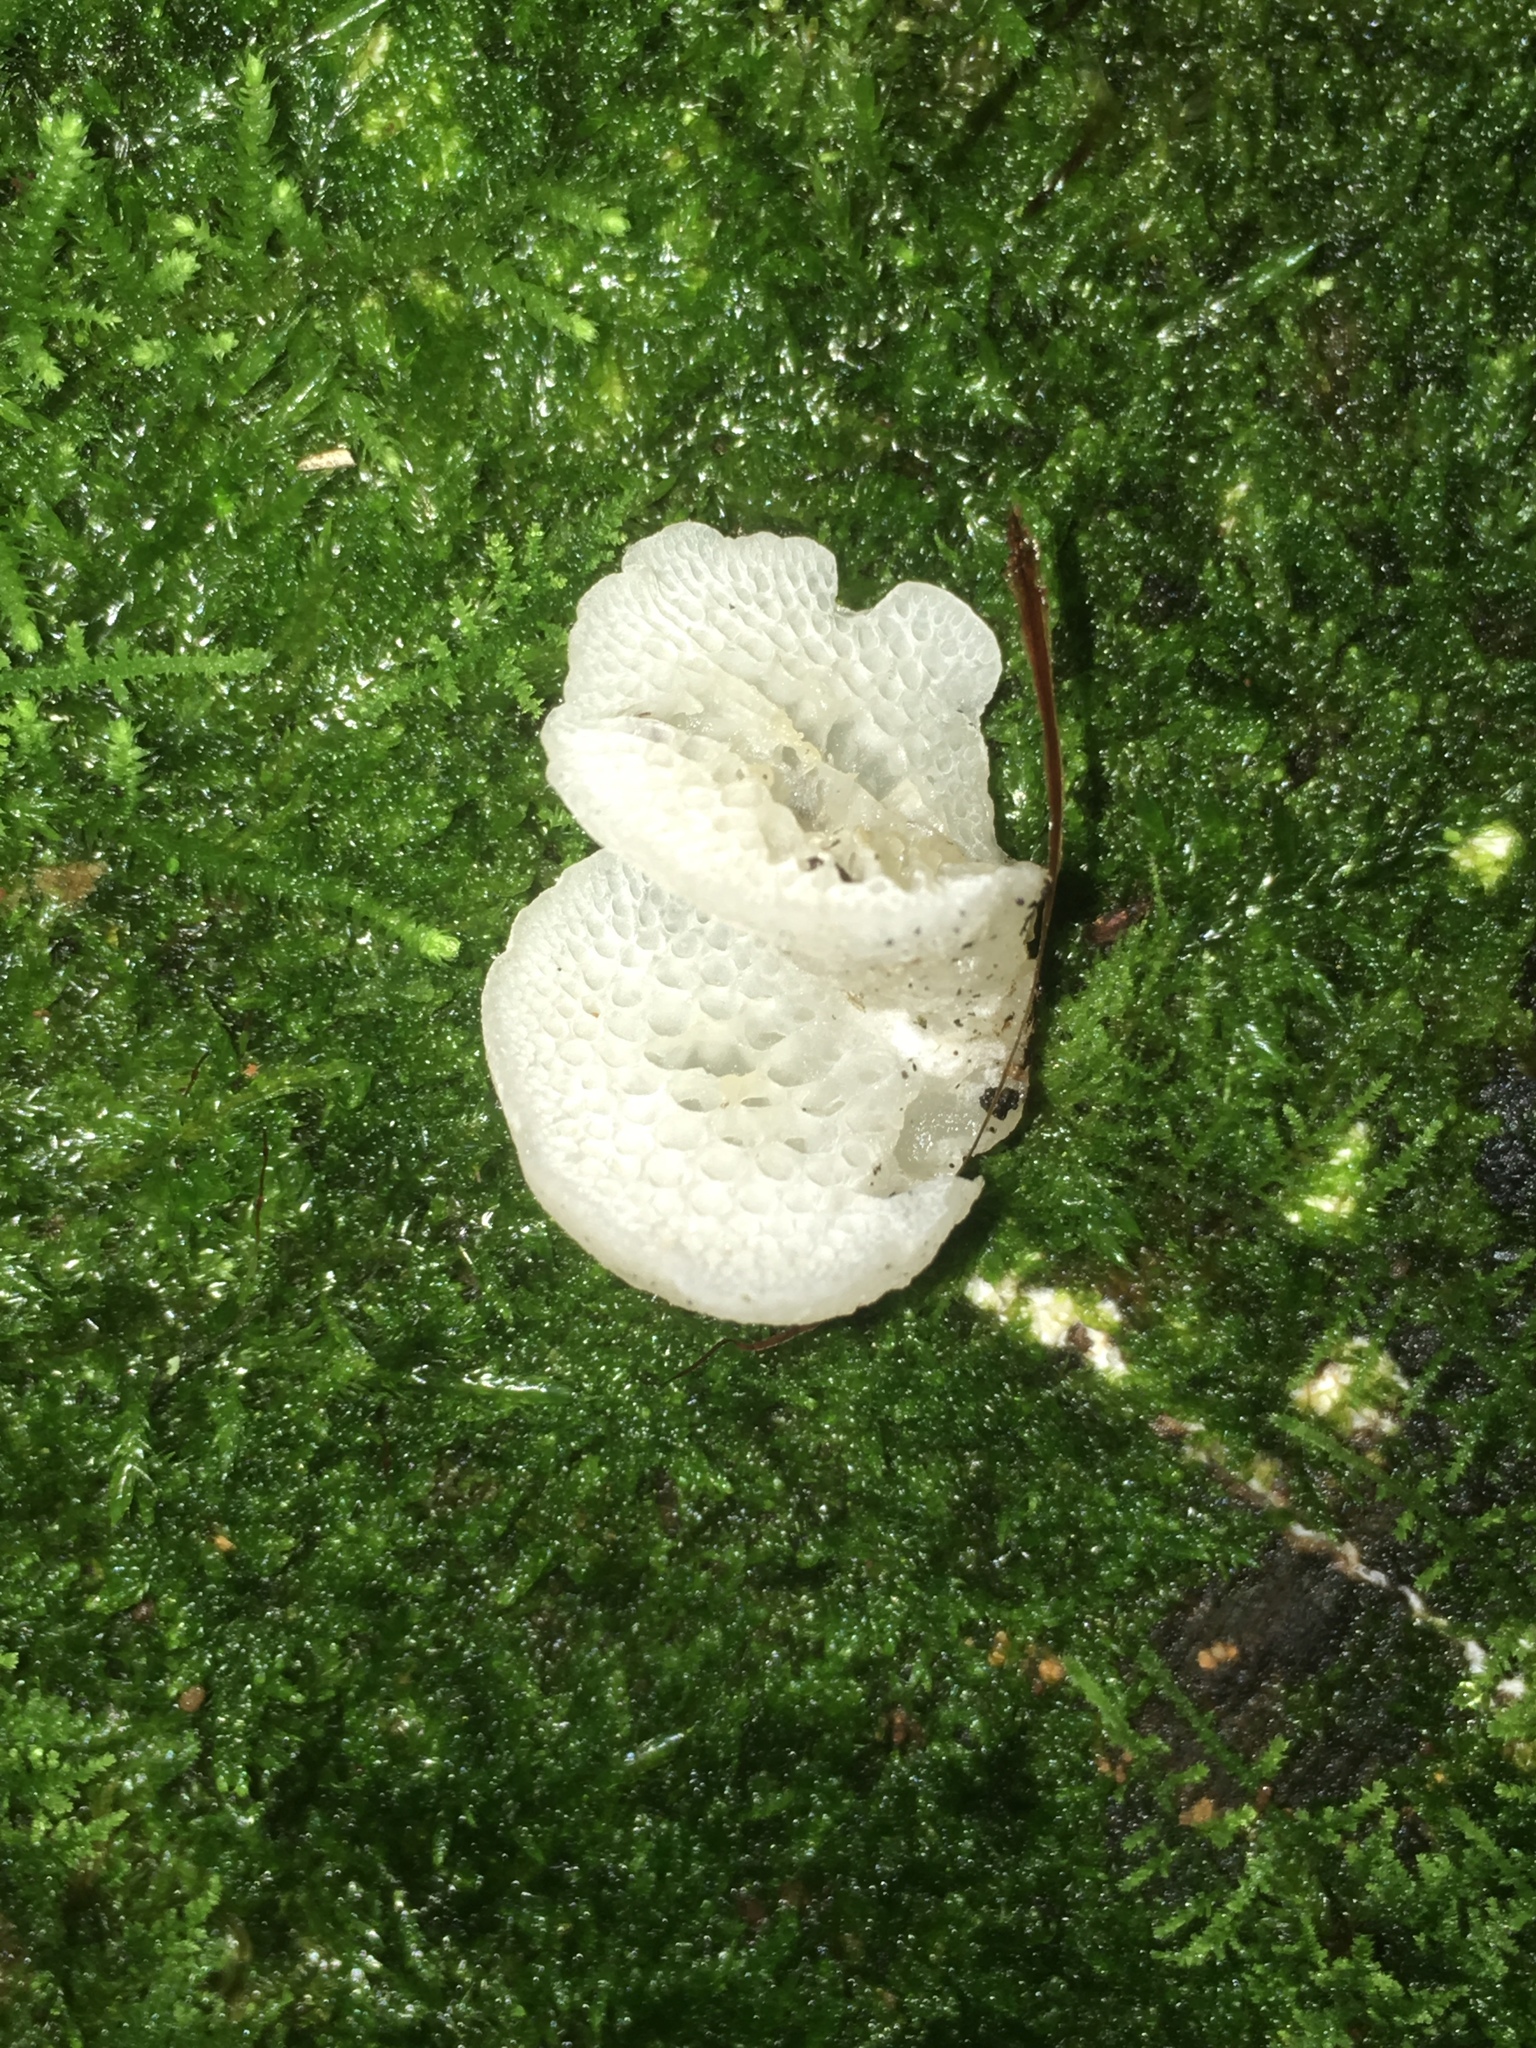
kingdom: Fungi
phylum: Basidiomycota
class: Agaricomycetes
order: Agaricales
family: Mycenaceae
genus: Favolaschia
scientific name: Favolaschia pustulosa
